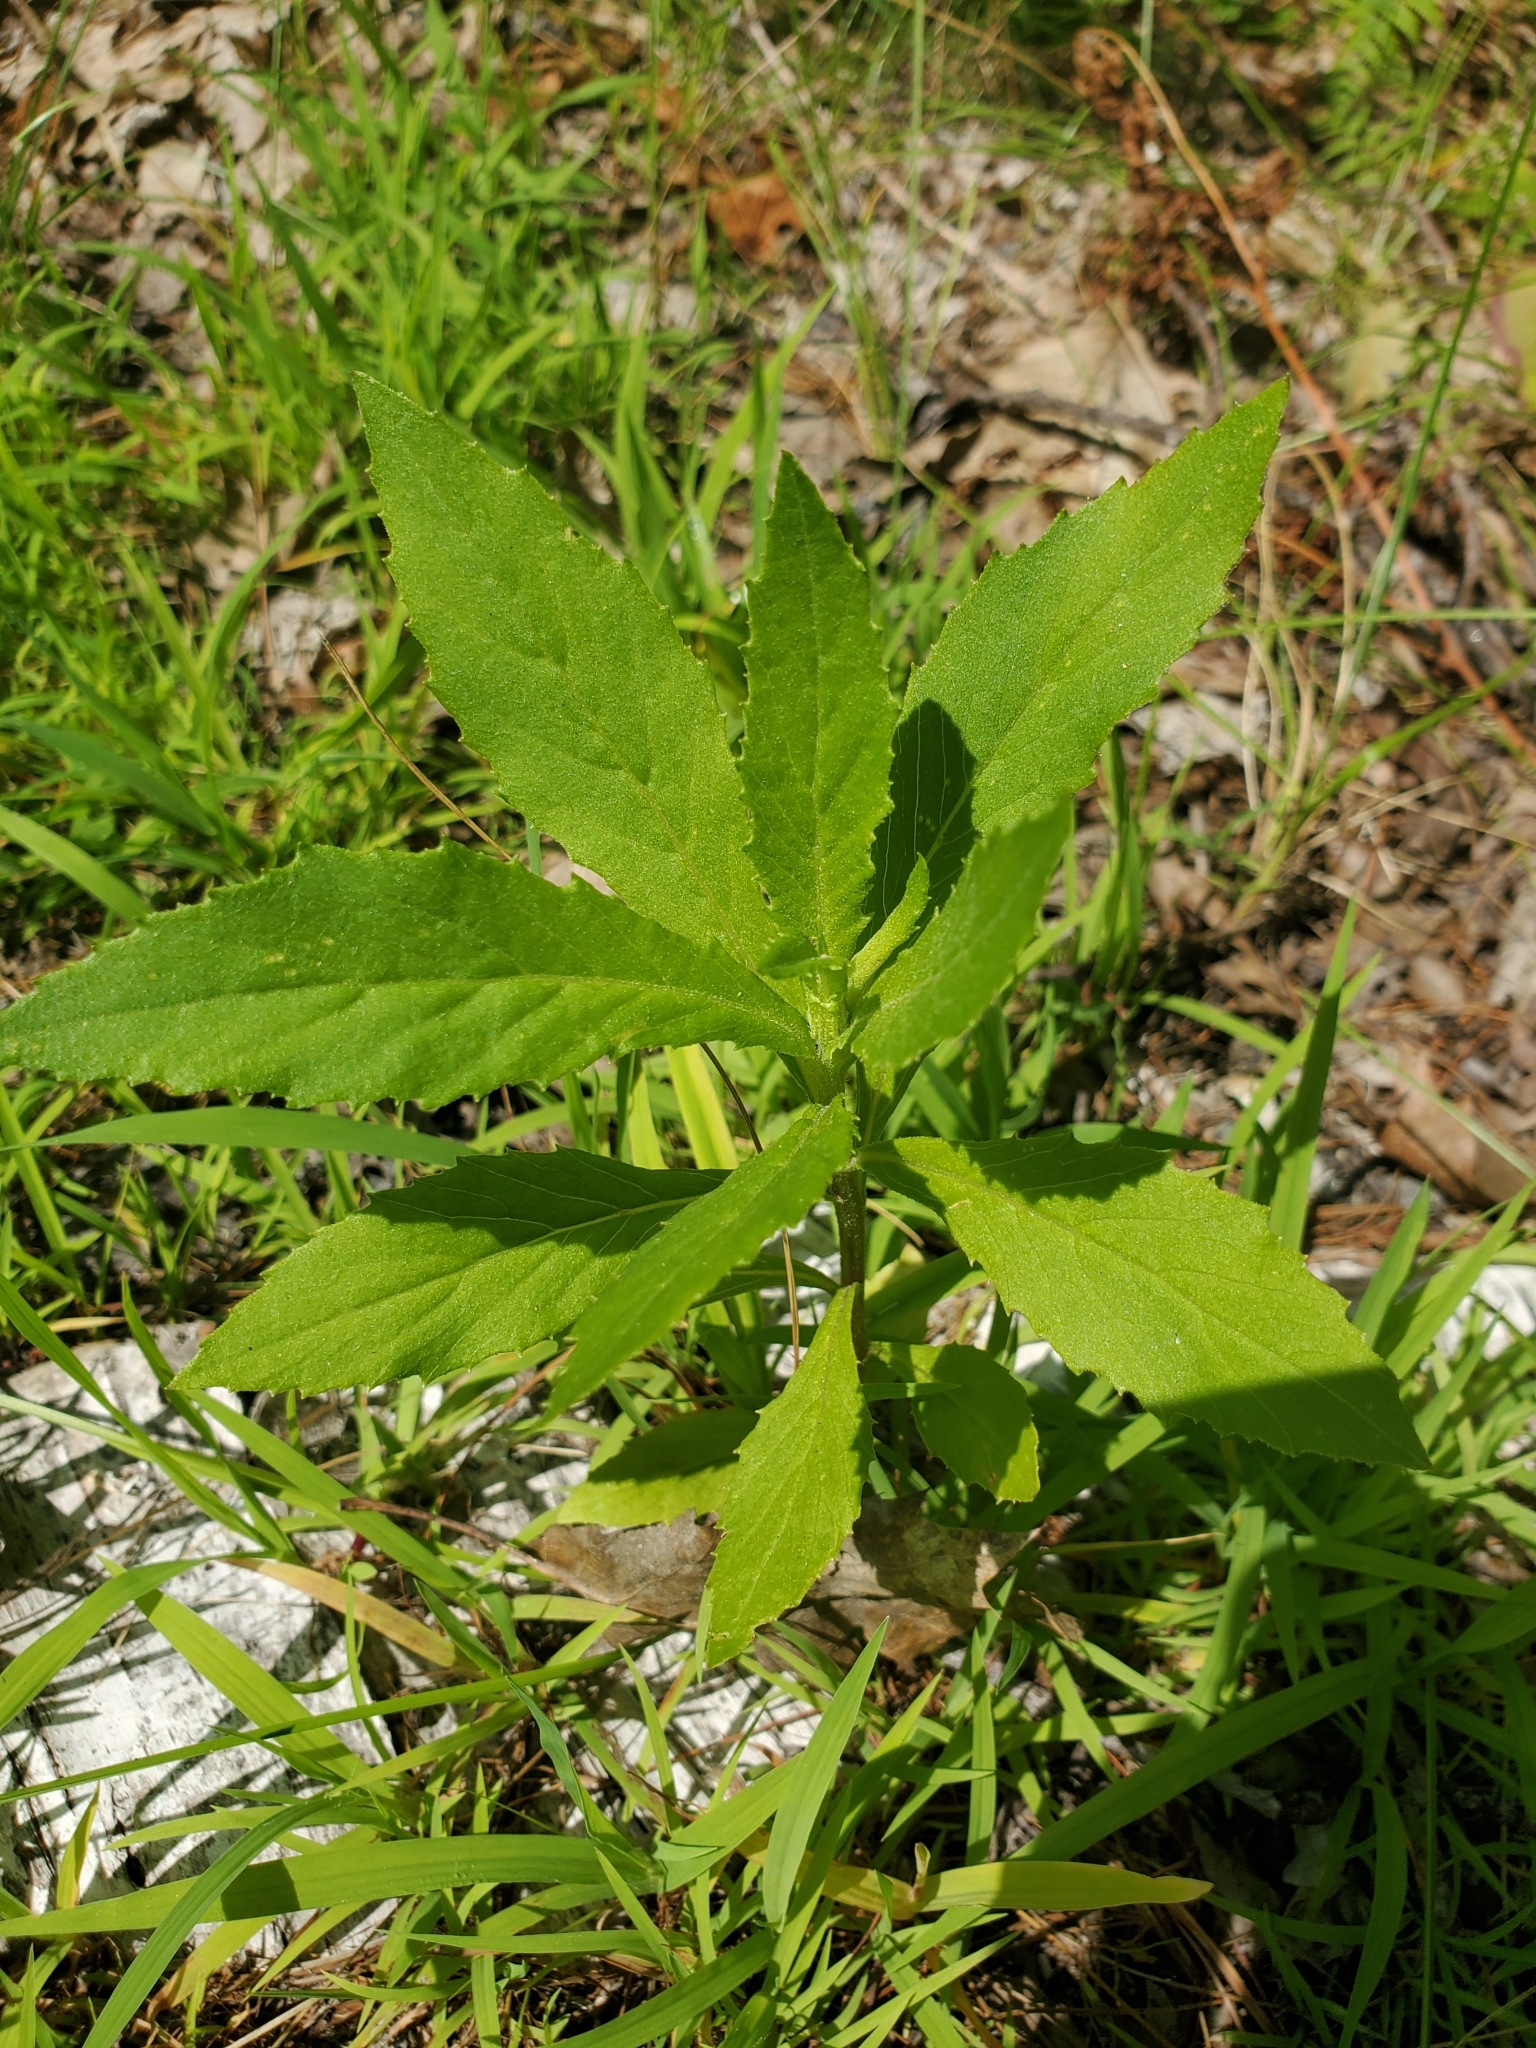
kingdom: Plantae
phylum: Tracheophyta
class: Magnoliopsida
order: Asterales
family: Asteraceae
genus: Erechtites
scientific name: Erechtites hieraciifolius
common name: American burnweed
